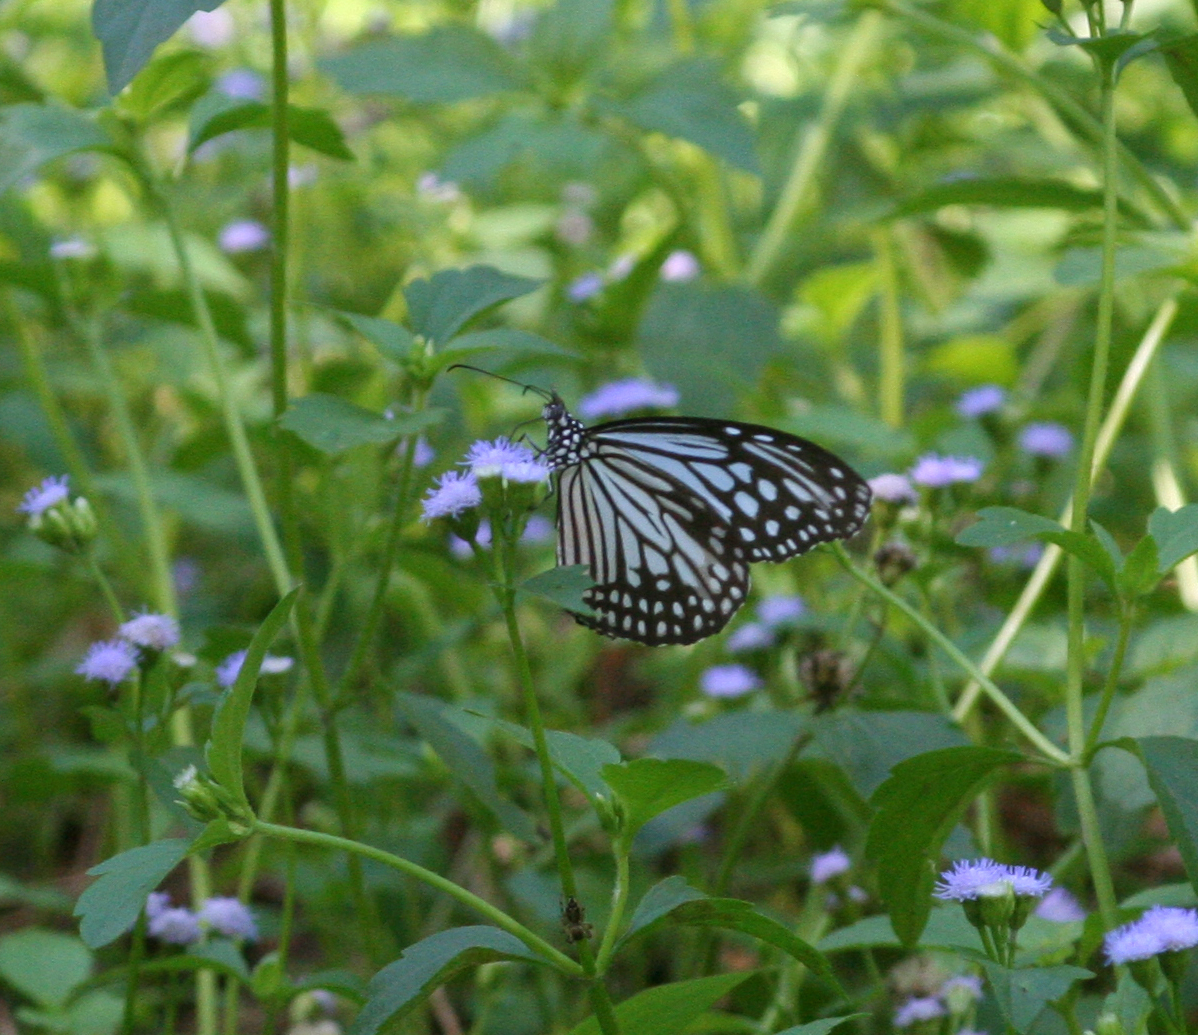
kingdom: Animalia
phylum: Arthropoda
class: Insecta
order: Lepidoptera
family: Nymphalidae
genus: Parantica
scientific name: Parantica aglea
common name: Glassy tiger
